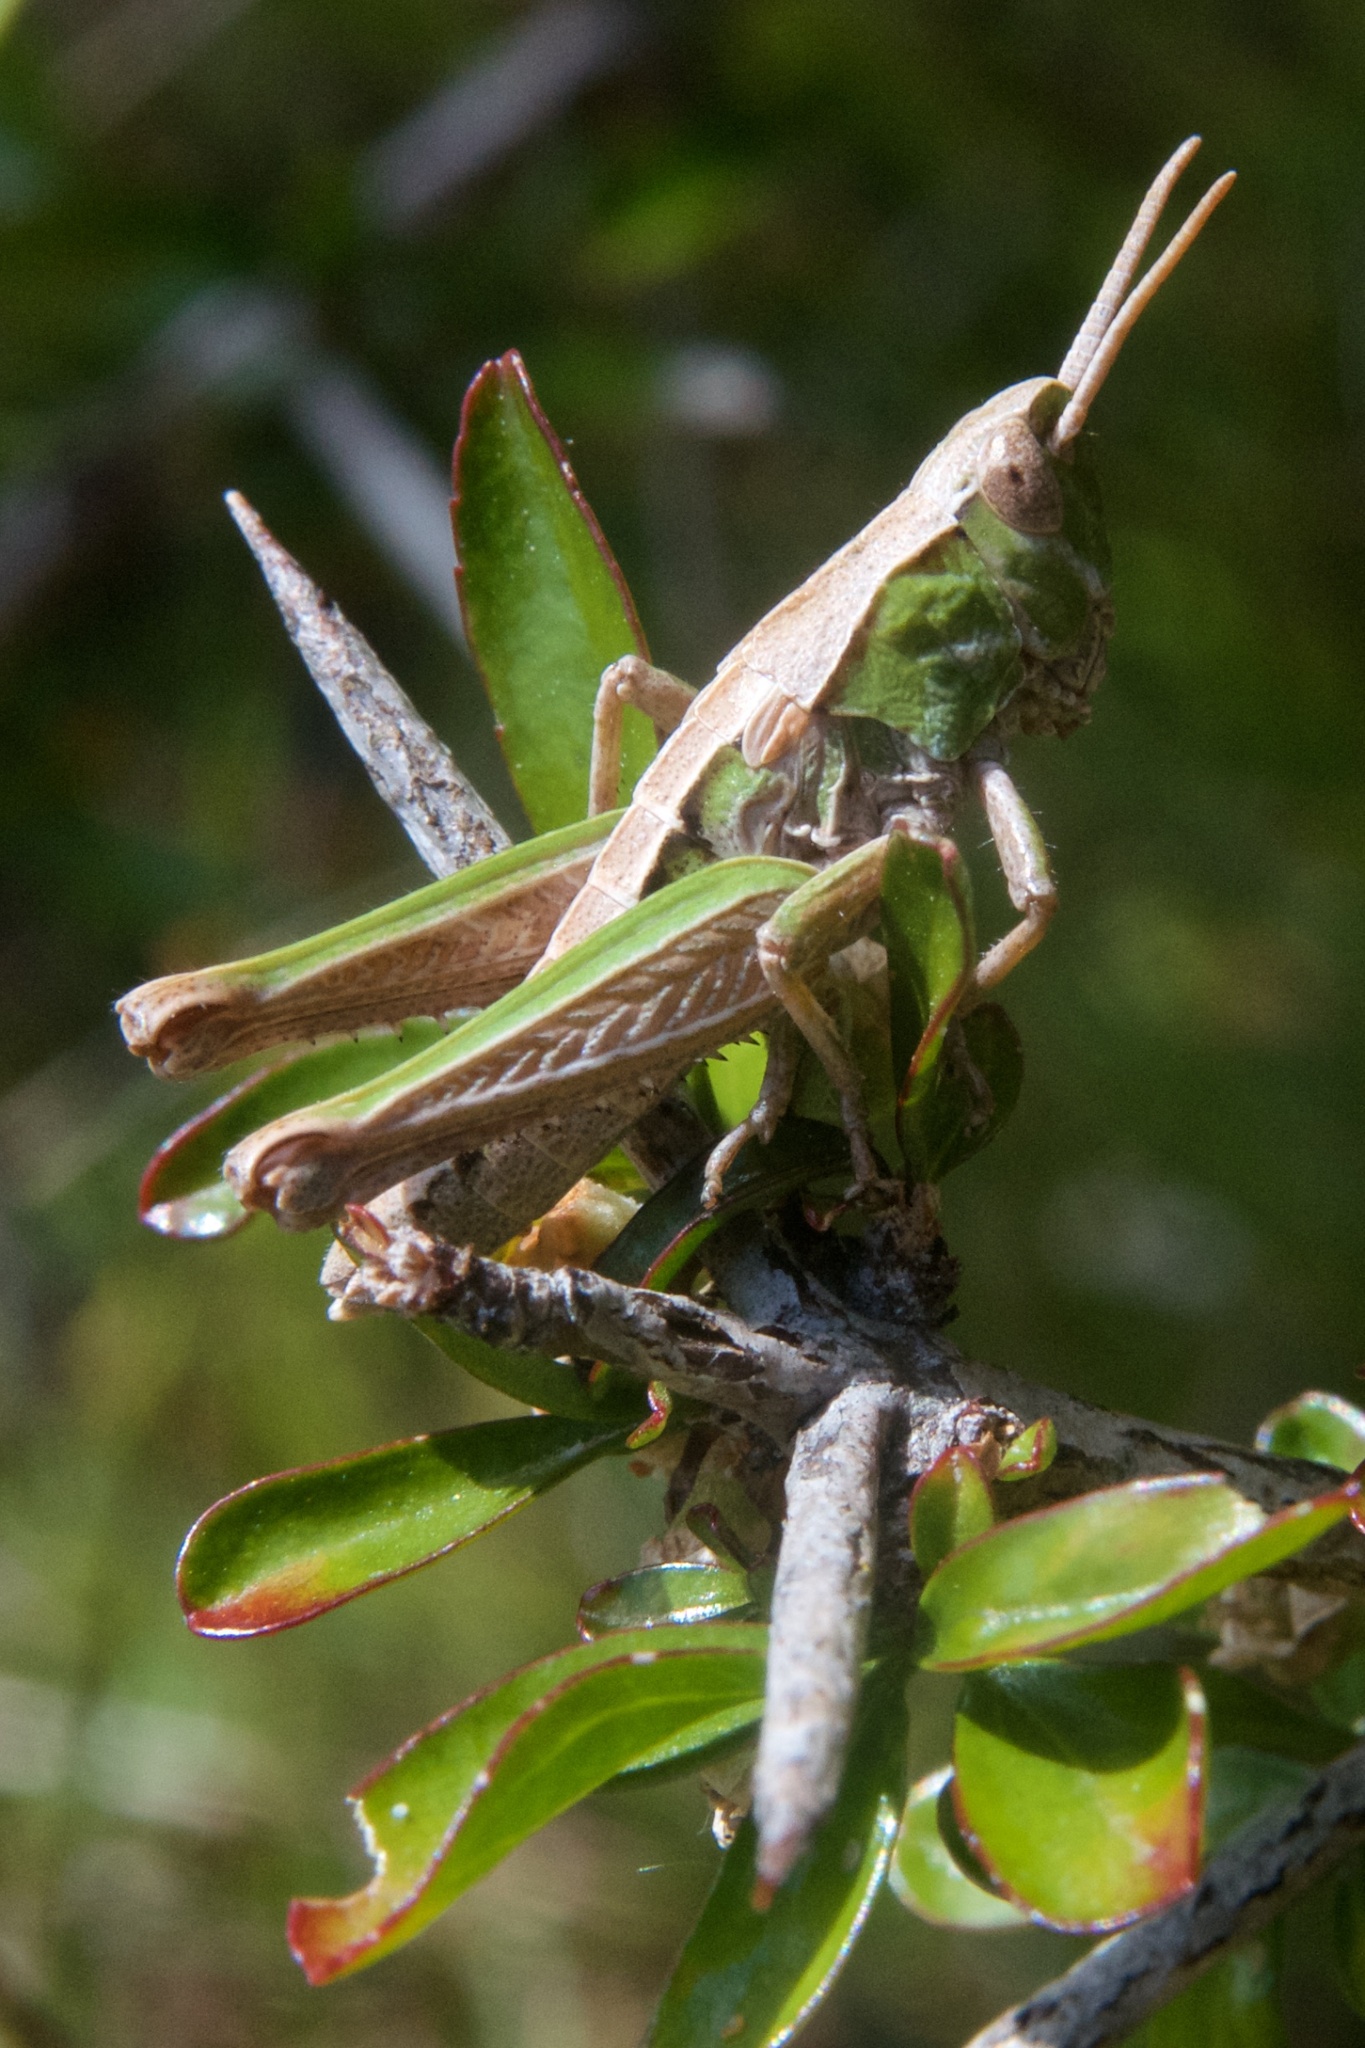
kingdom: Animalia
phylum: Arthropoda
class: Insecta
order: Orthoptera
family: Acrididae
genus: Sigaus
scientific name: Sigaus campestris
